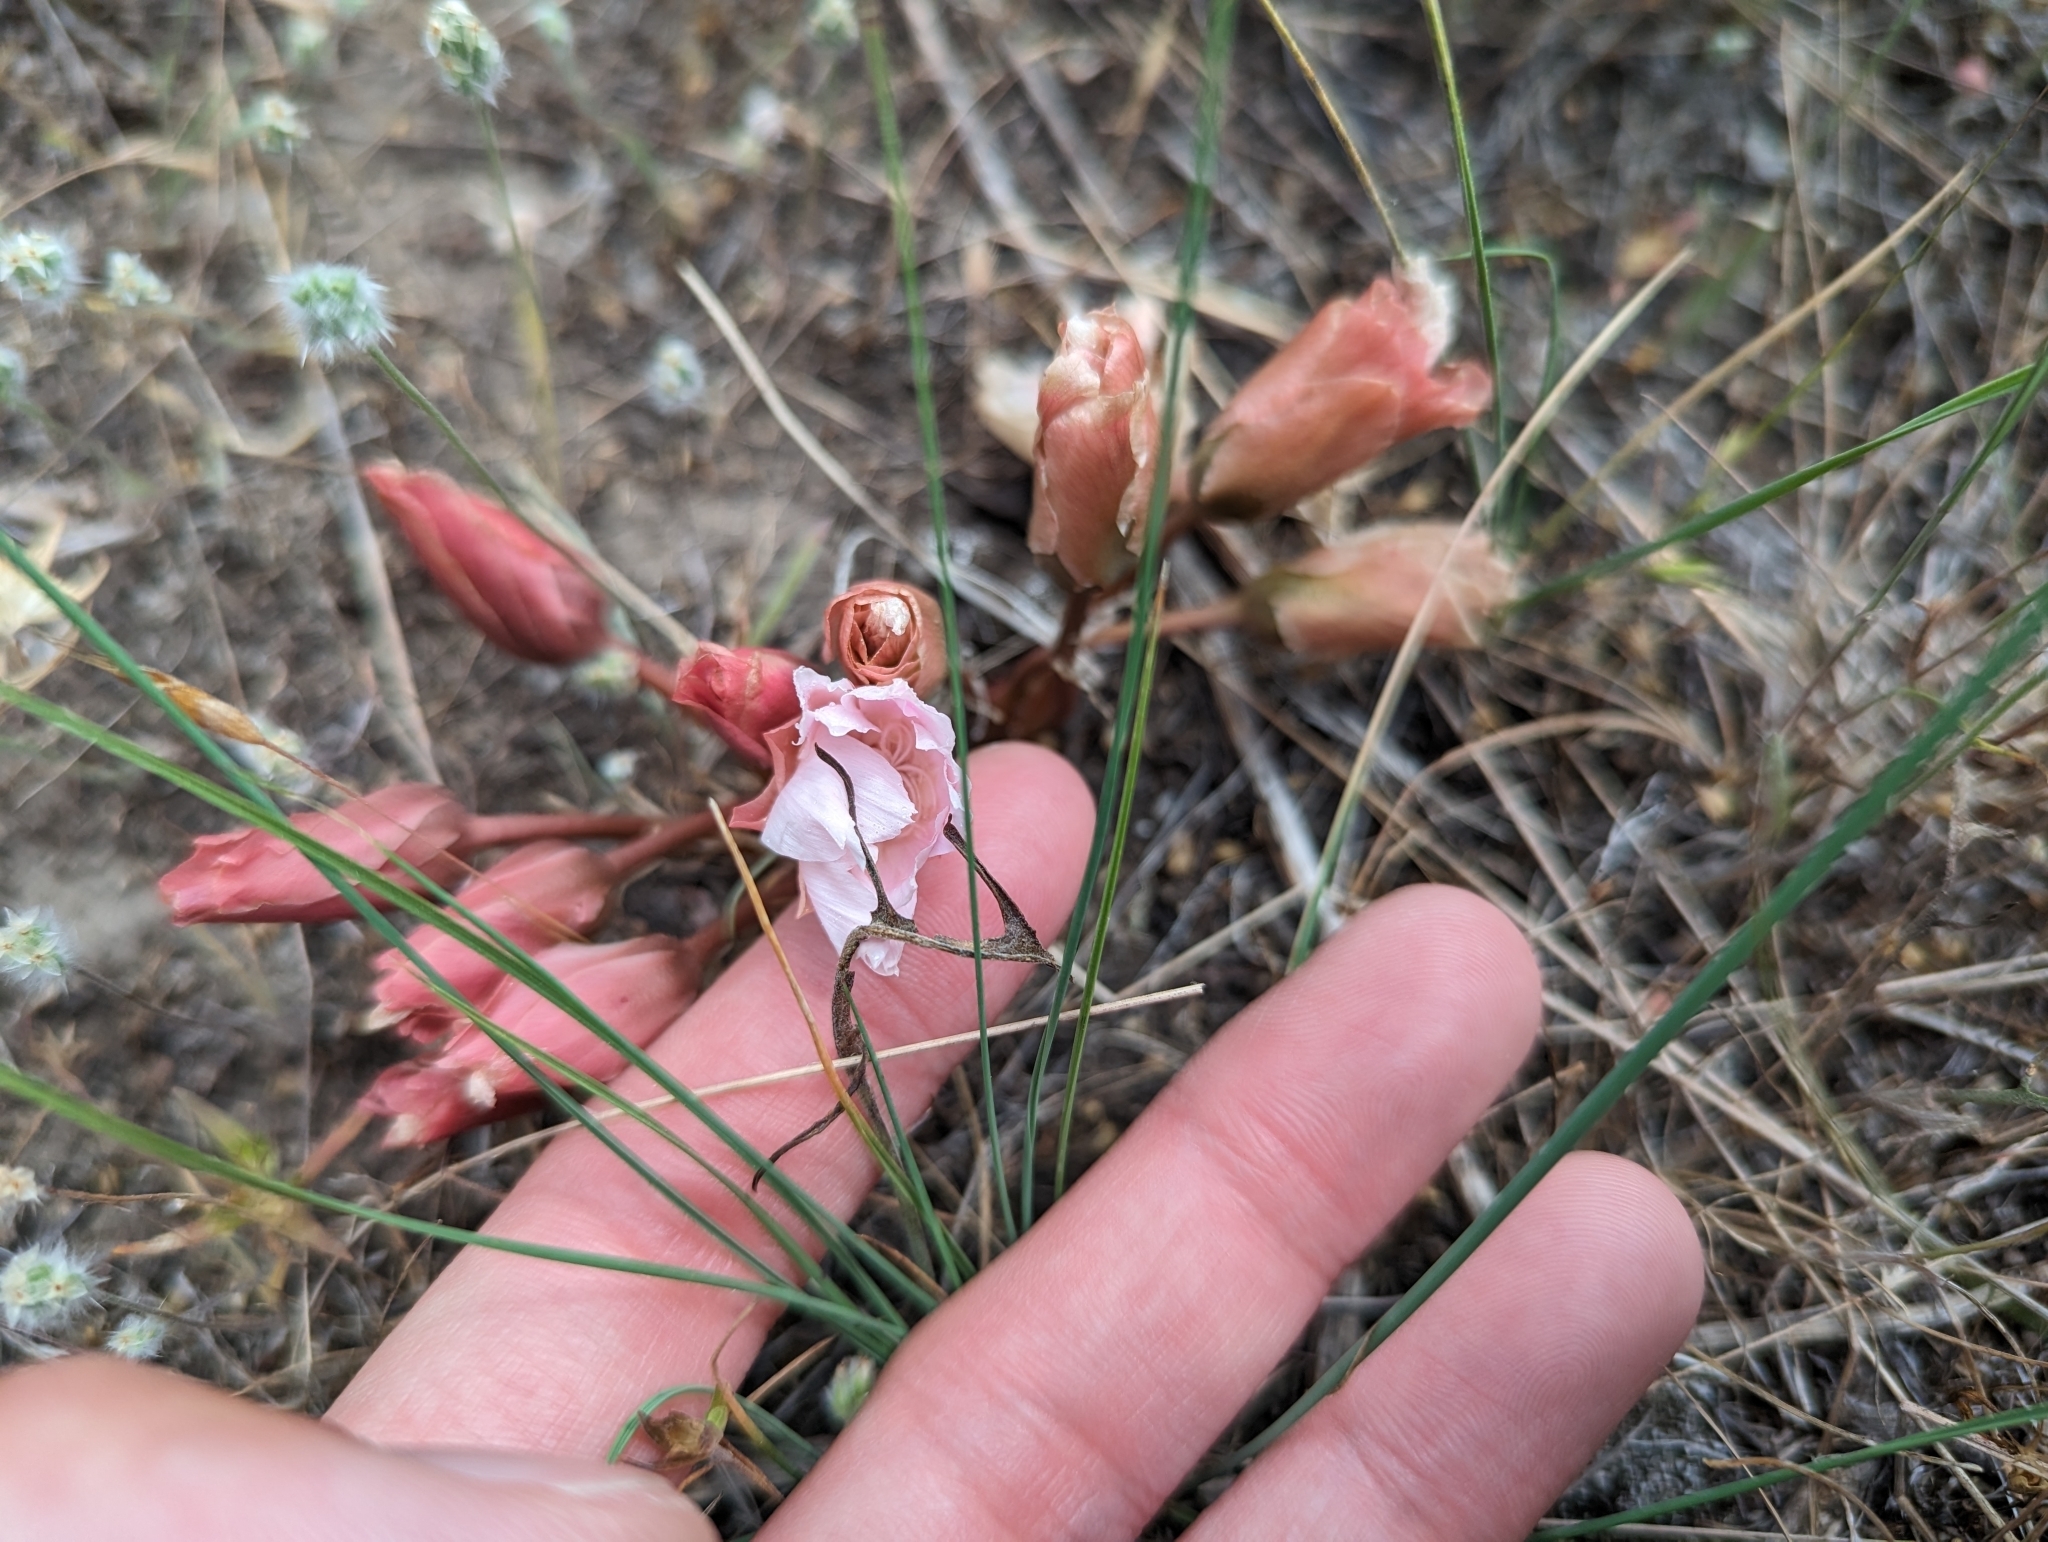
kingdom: Plantae
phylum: Tracheophyta
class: Magnoliopsida
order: Caryophyllales
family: Montiaceae
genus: Lewisia
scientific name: Lewisia rediviva
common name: Bitter-root
